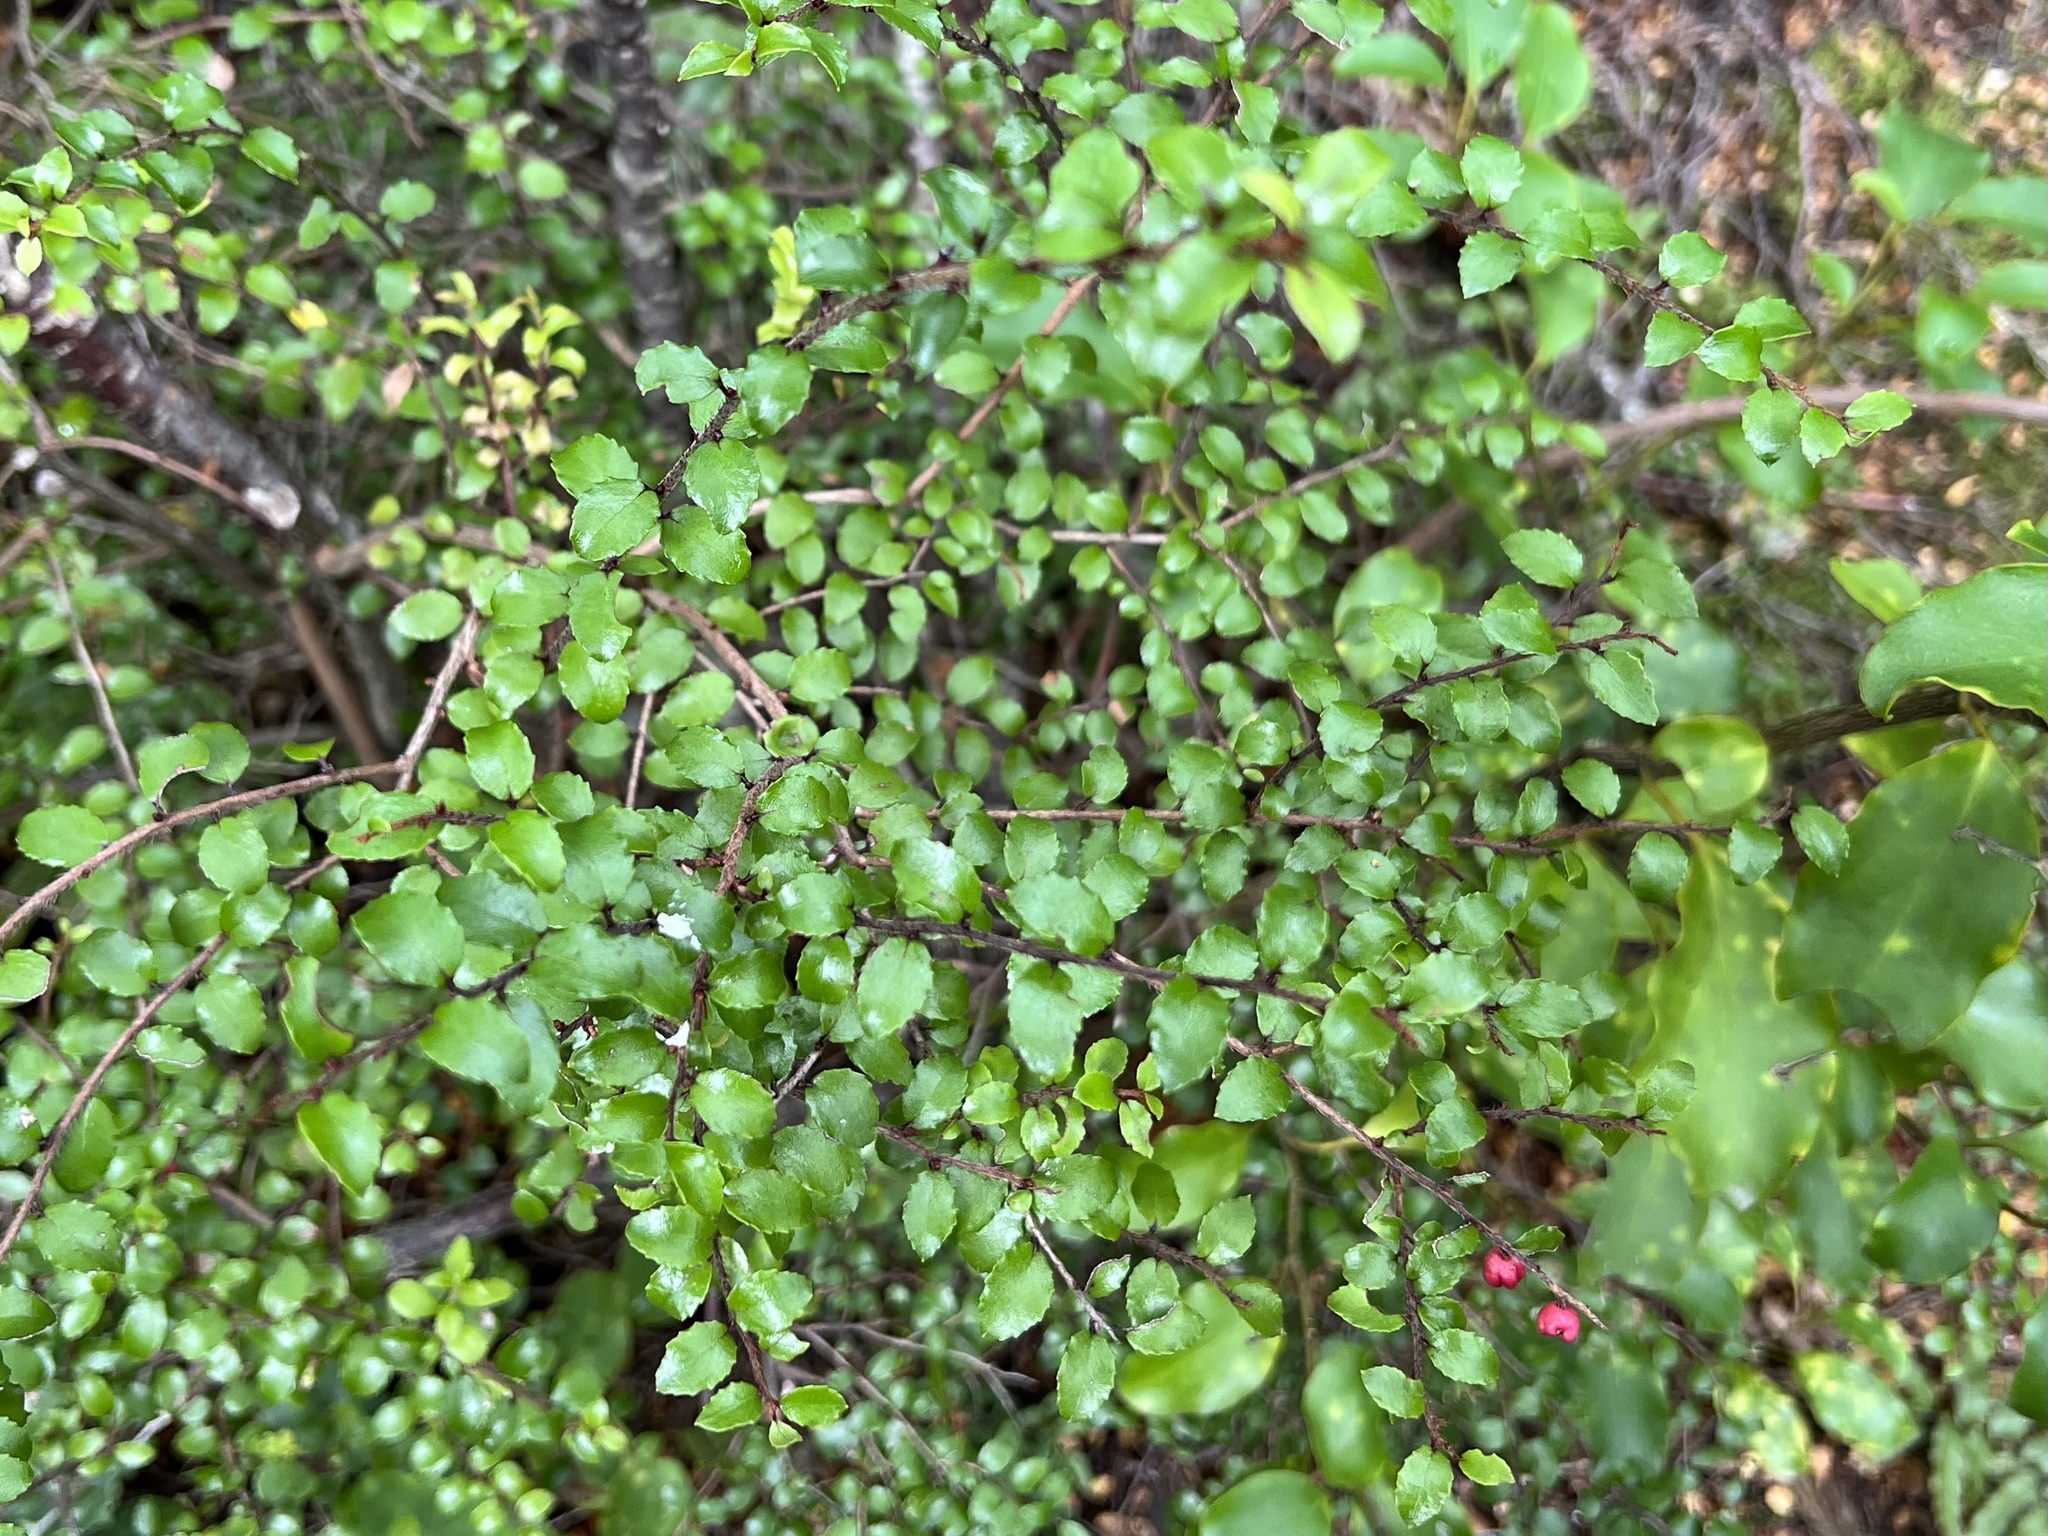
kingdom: Plantae
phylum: Tracheophyta
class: Magnoliopsida
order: Ericales
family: Ericaceae
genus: Gaultheria
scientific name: Gaultheria antipoda
